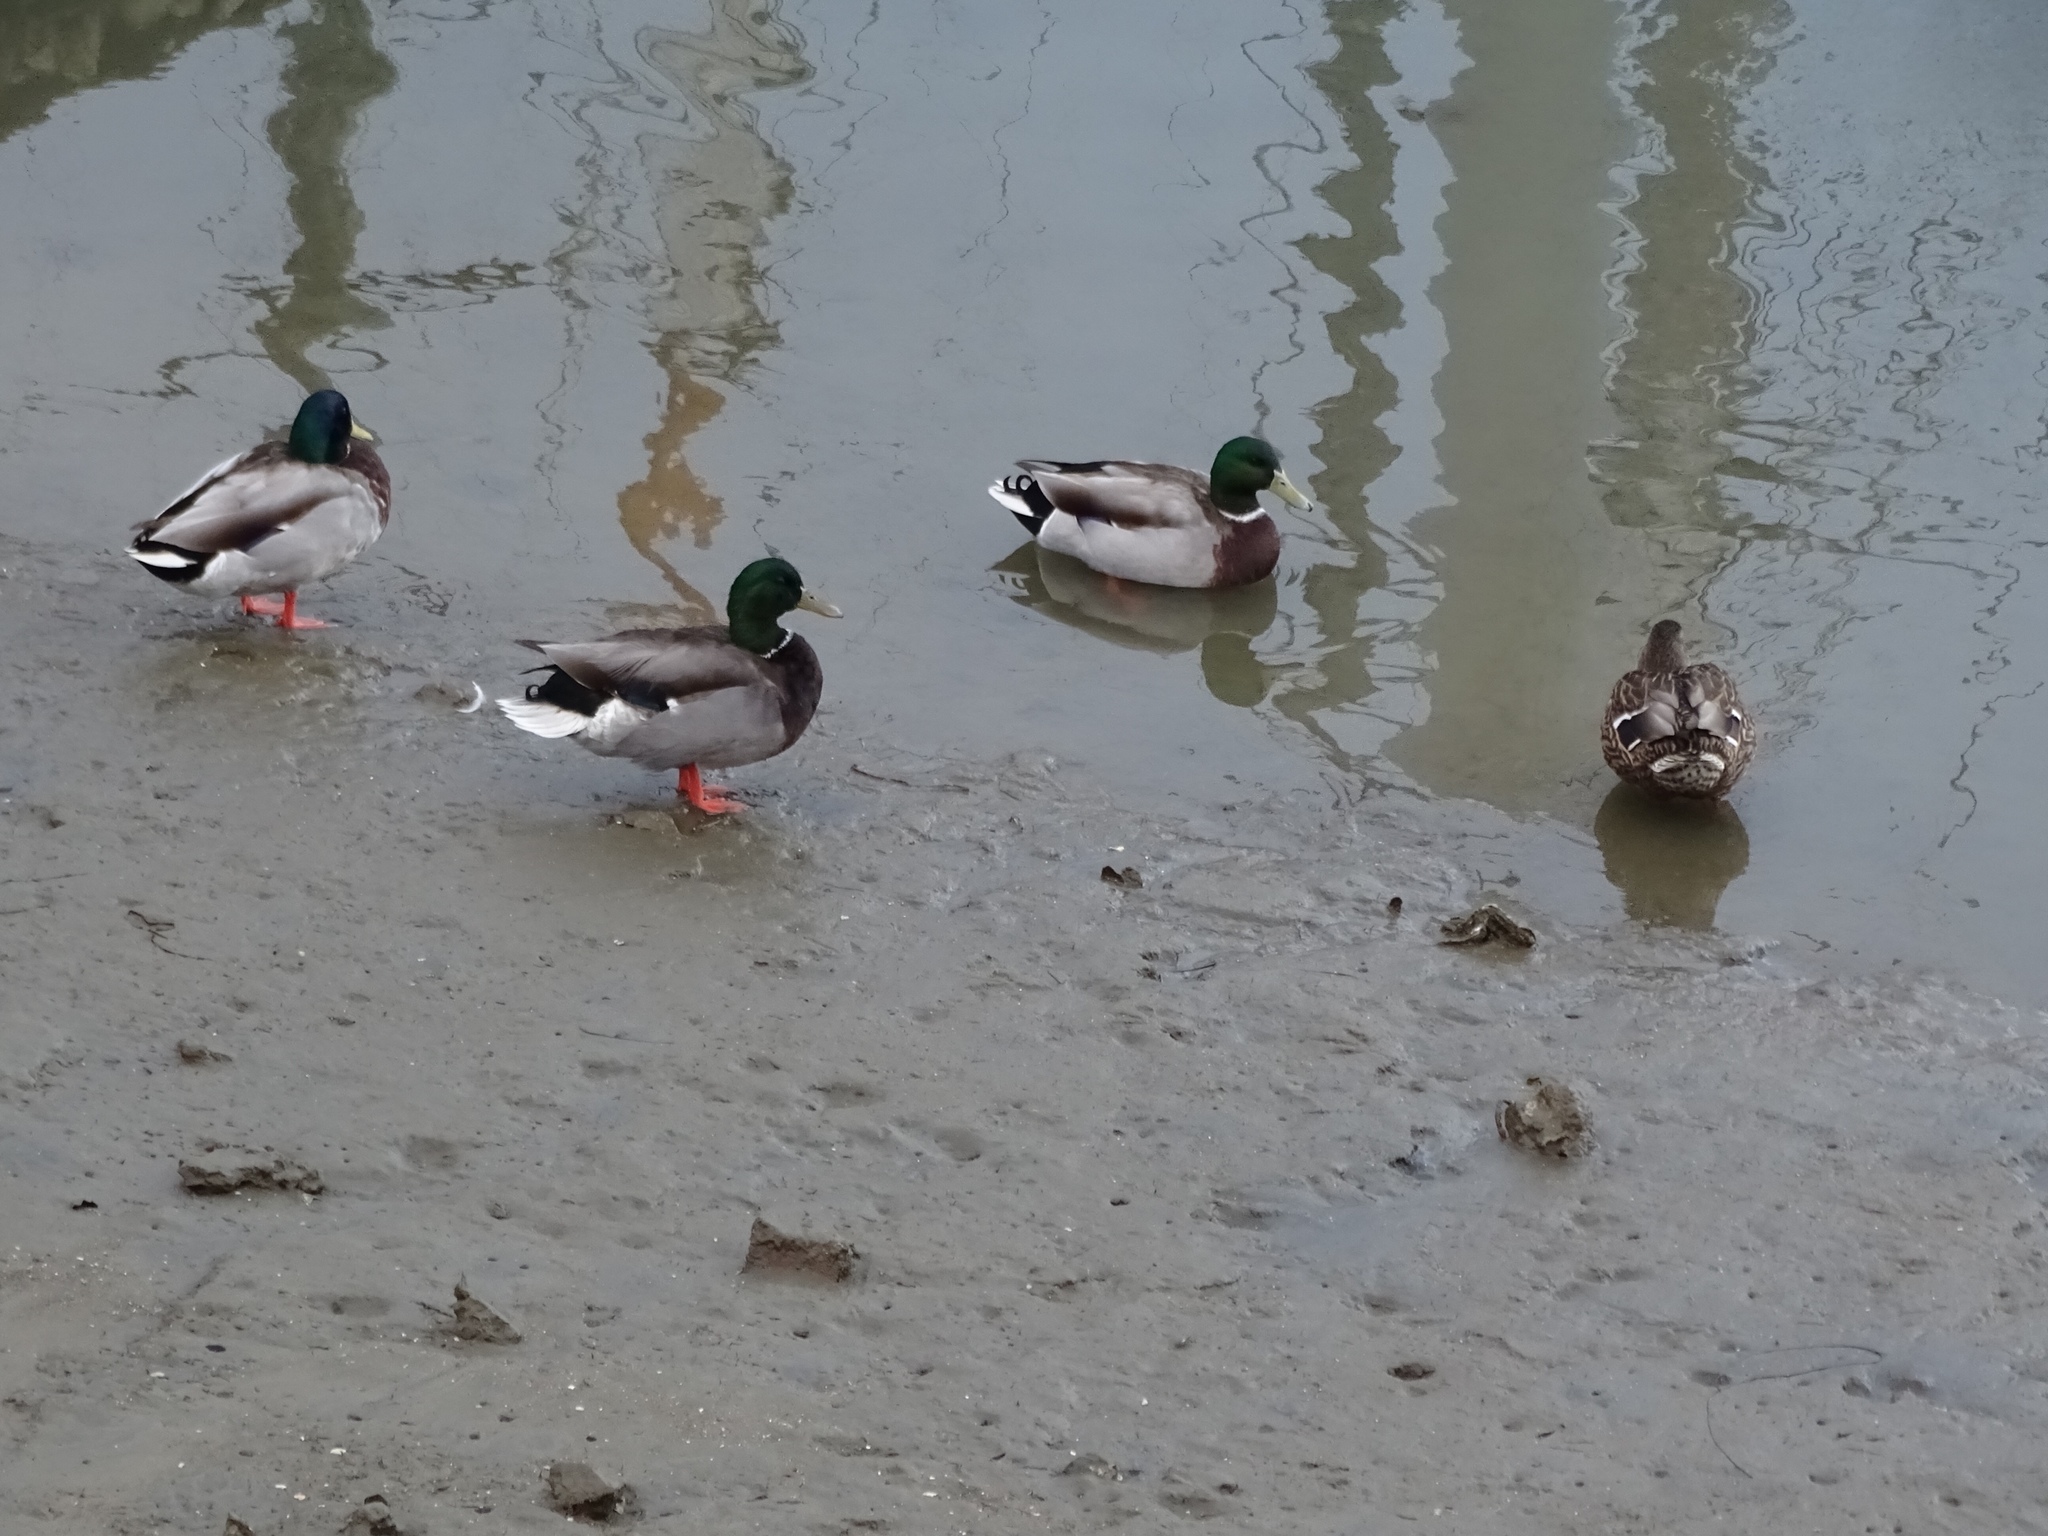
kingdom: Animalia
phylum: Chordata
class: Aves
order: Anseriformes
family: Anatidae
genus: Anas
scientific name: Anas platyrhynchos
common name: Mallard
